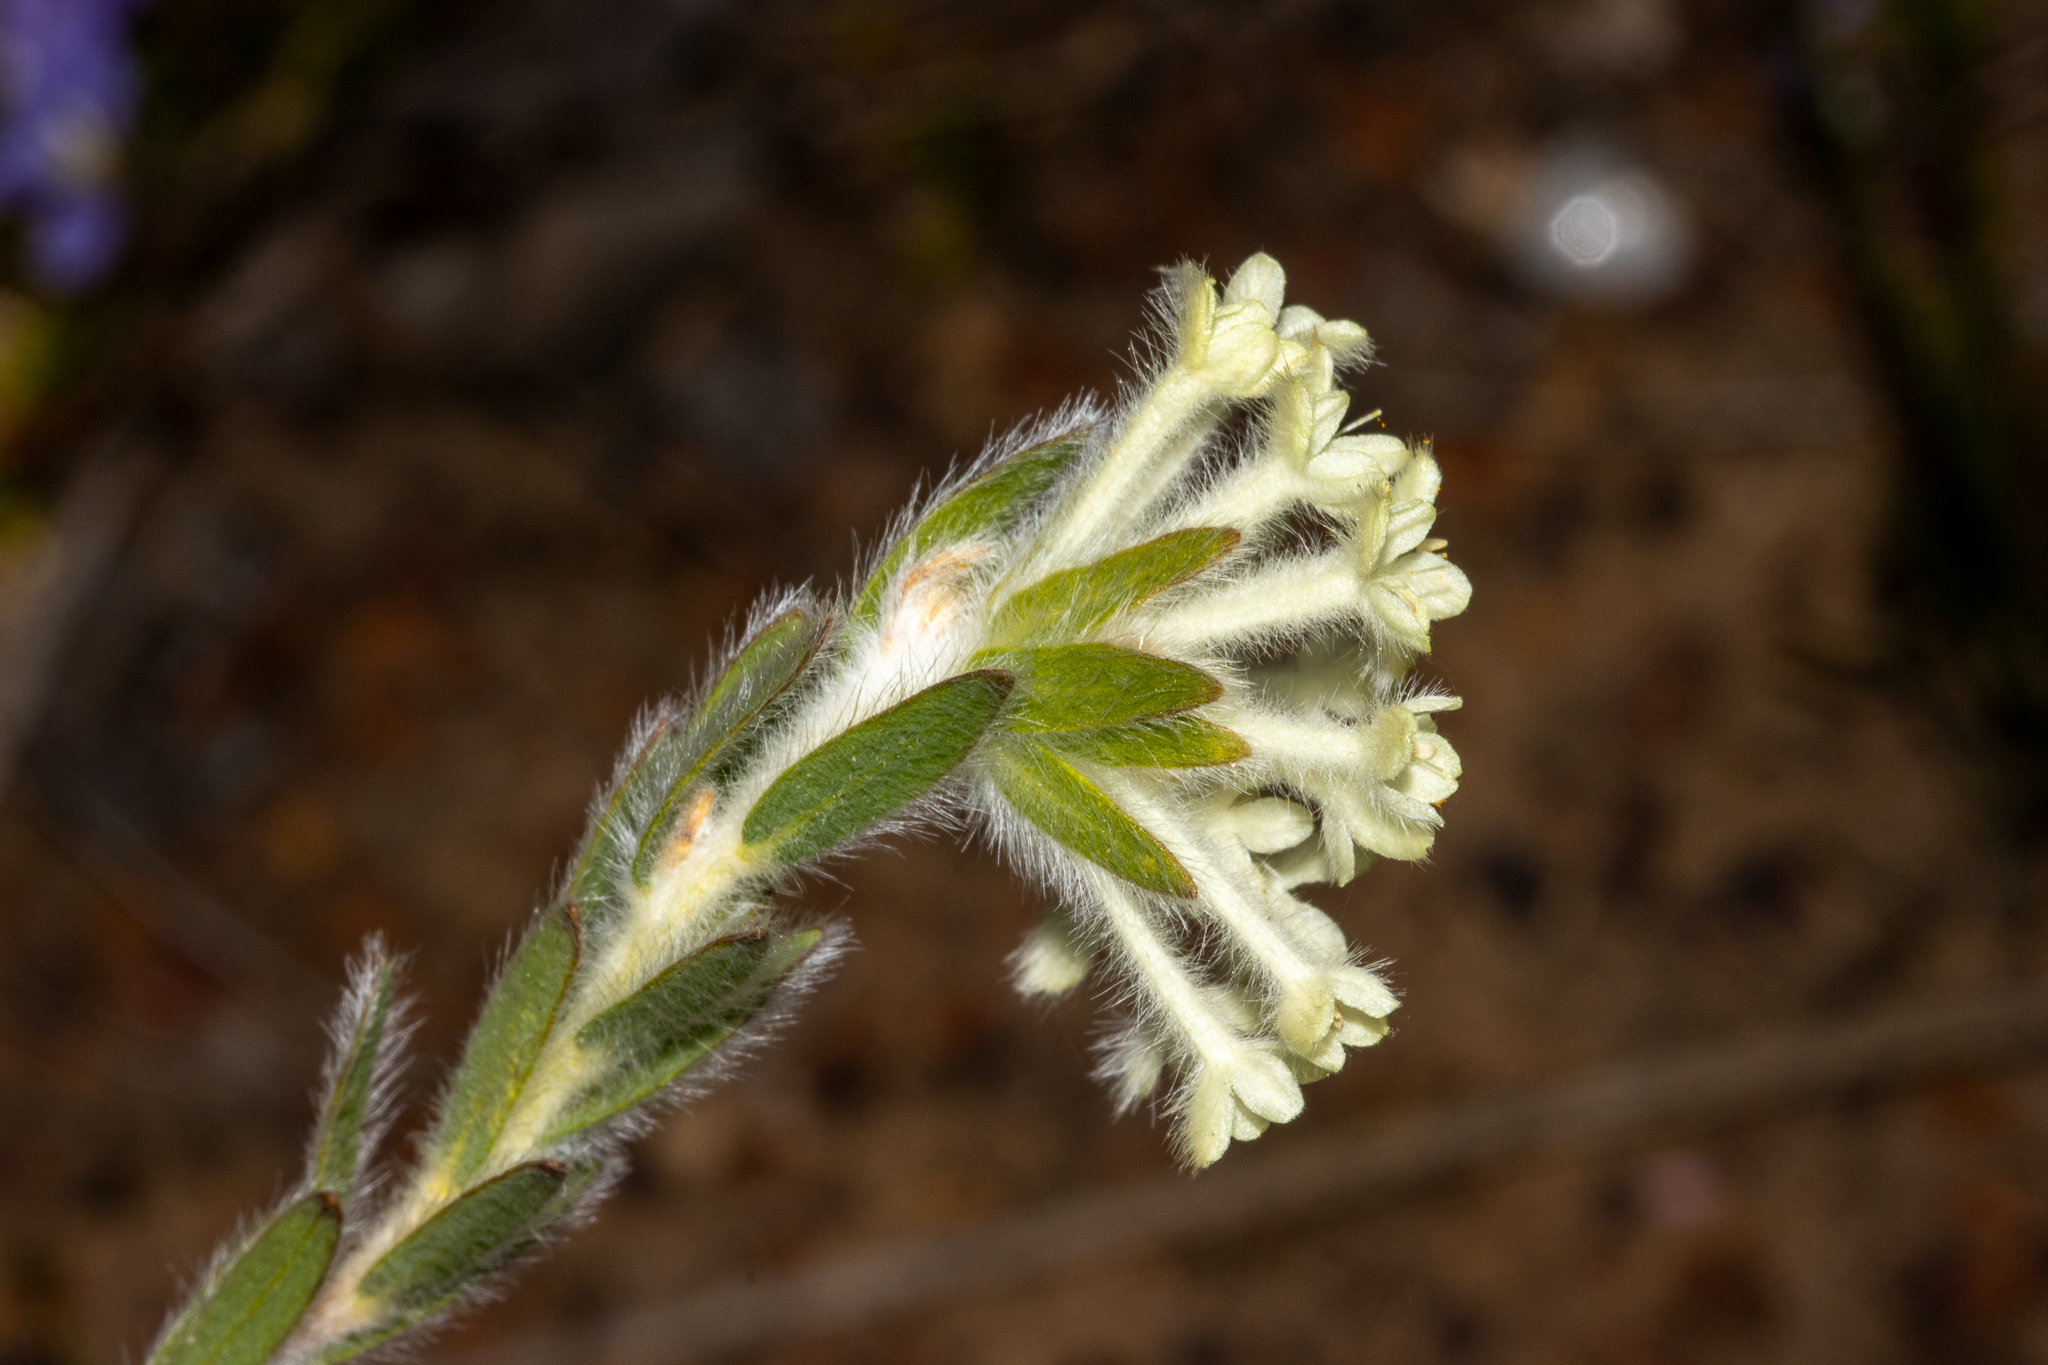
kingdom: Plantae
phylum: Tracheophyta
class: Magnoliopsida
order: Malvales
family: Thymelaeaceae
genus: Pimelea
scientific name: Pimelea octophylla
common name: Woolly riceflower
